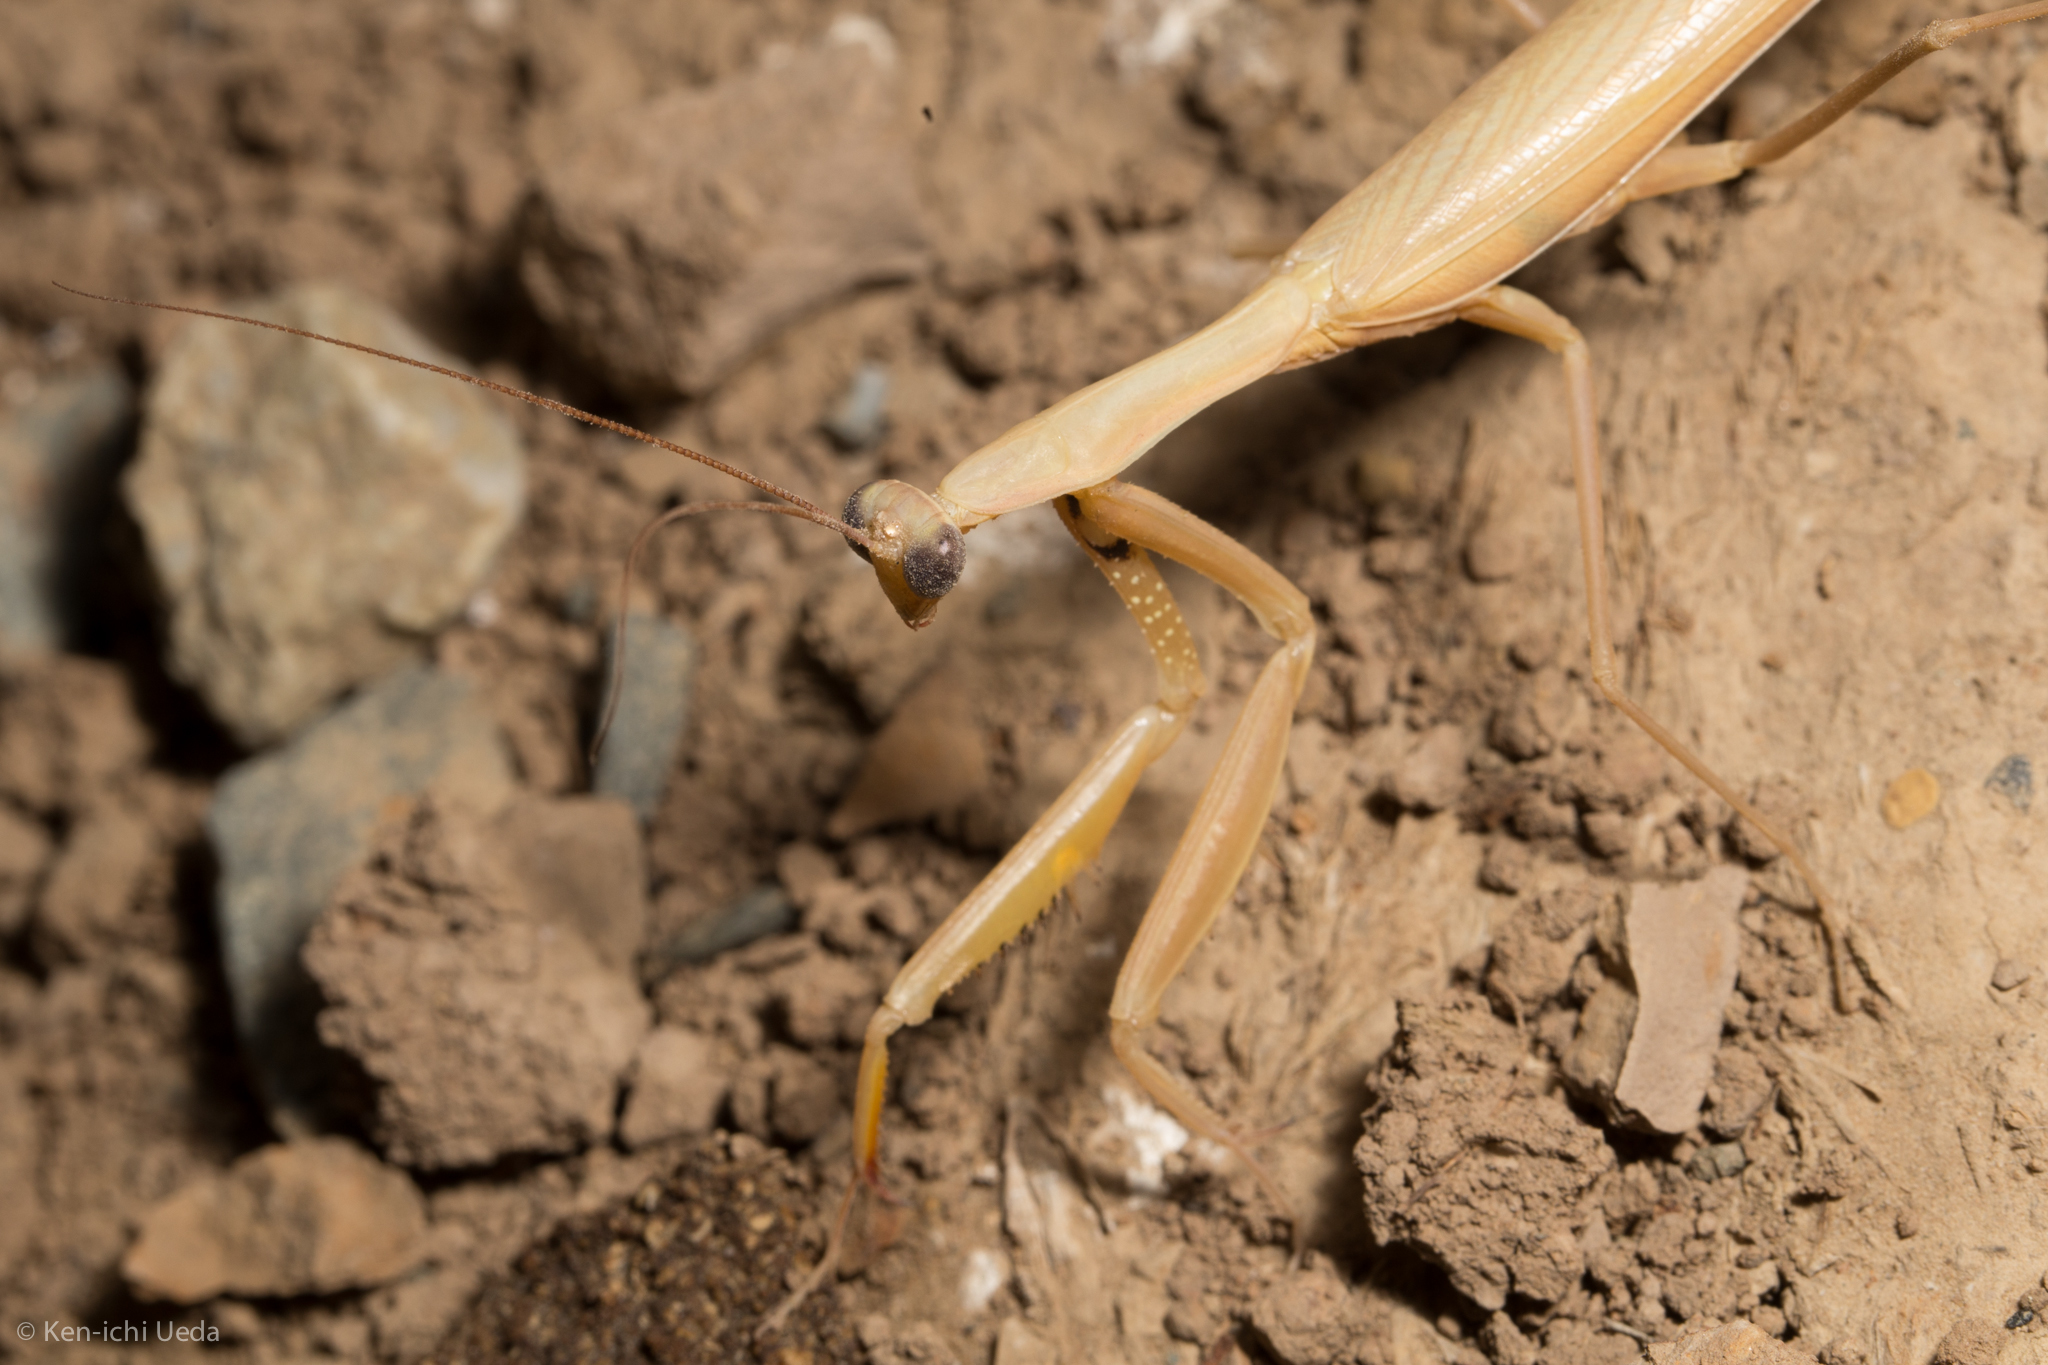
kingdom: Animalia
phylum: Arthropoda
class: Insecta
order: Mantodea
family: Mantidae
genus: Mantis
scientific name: Mantis religiosa
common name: Praying mantis
